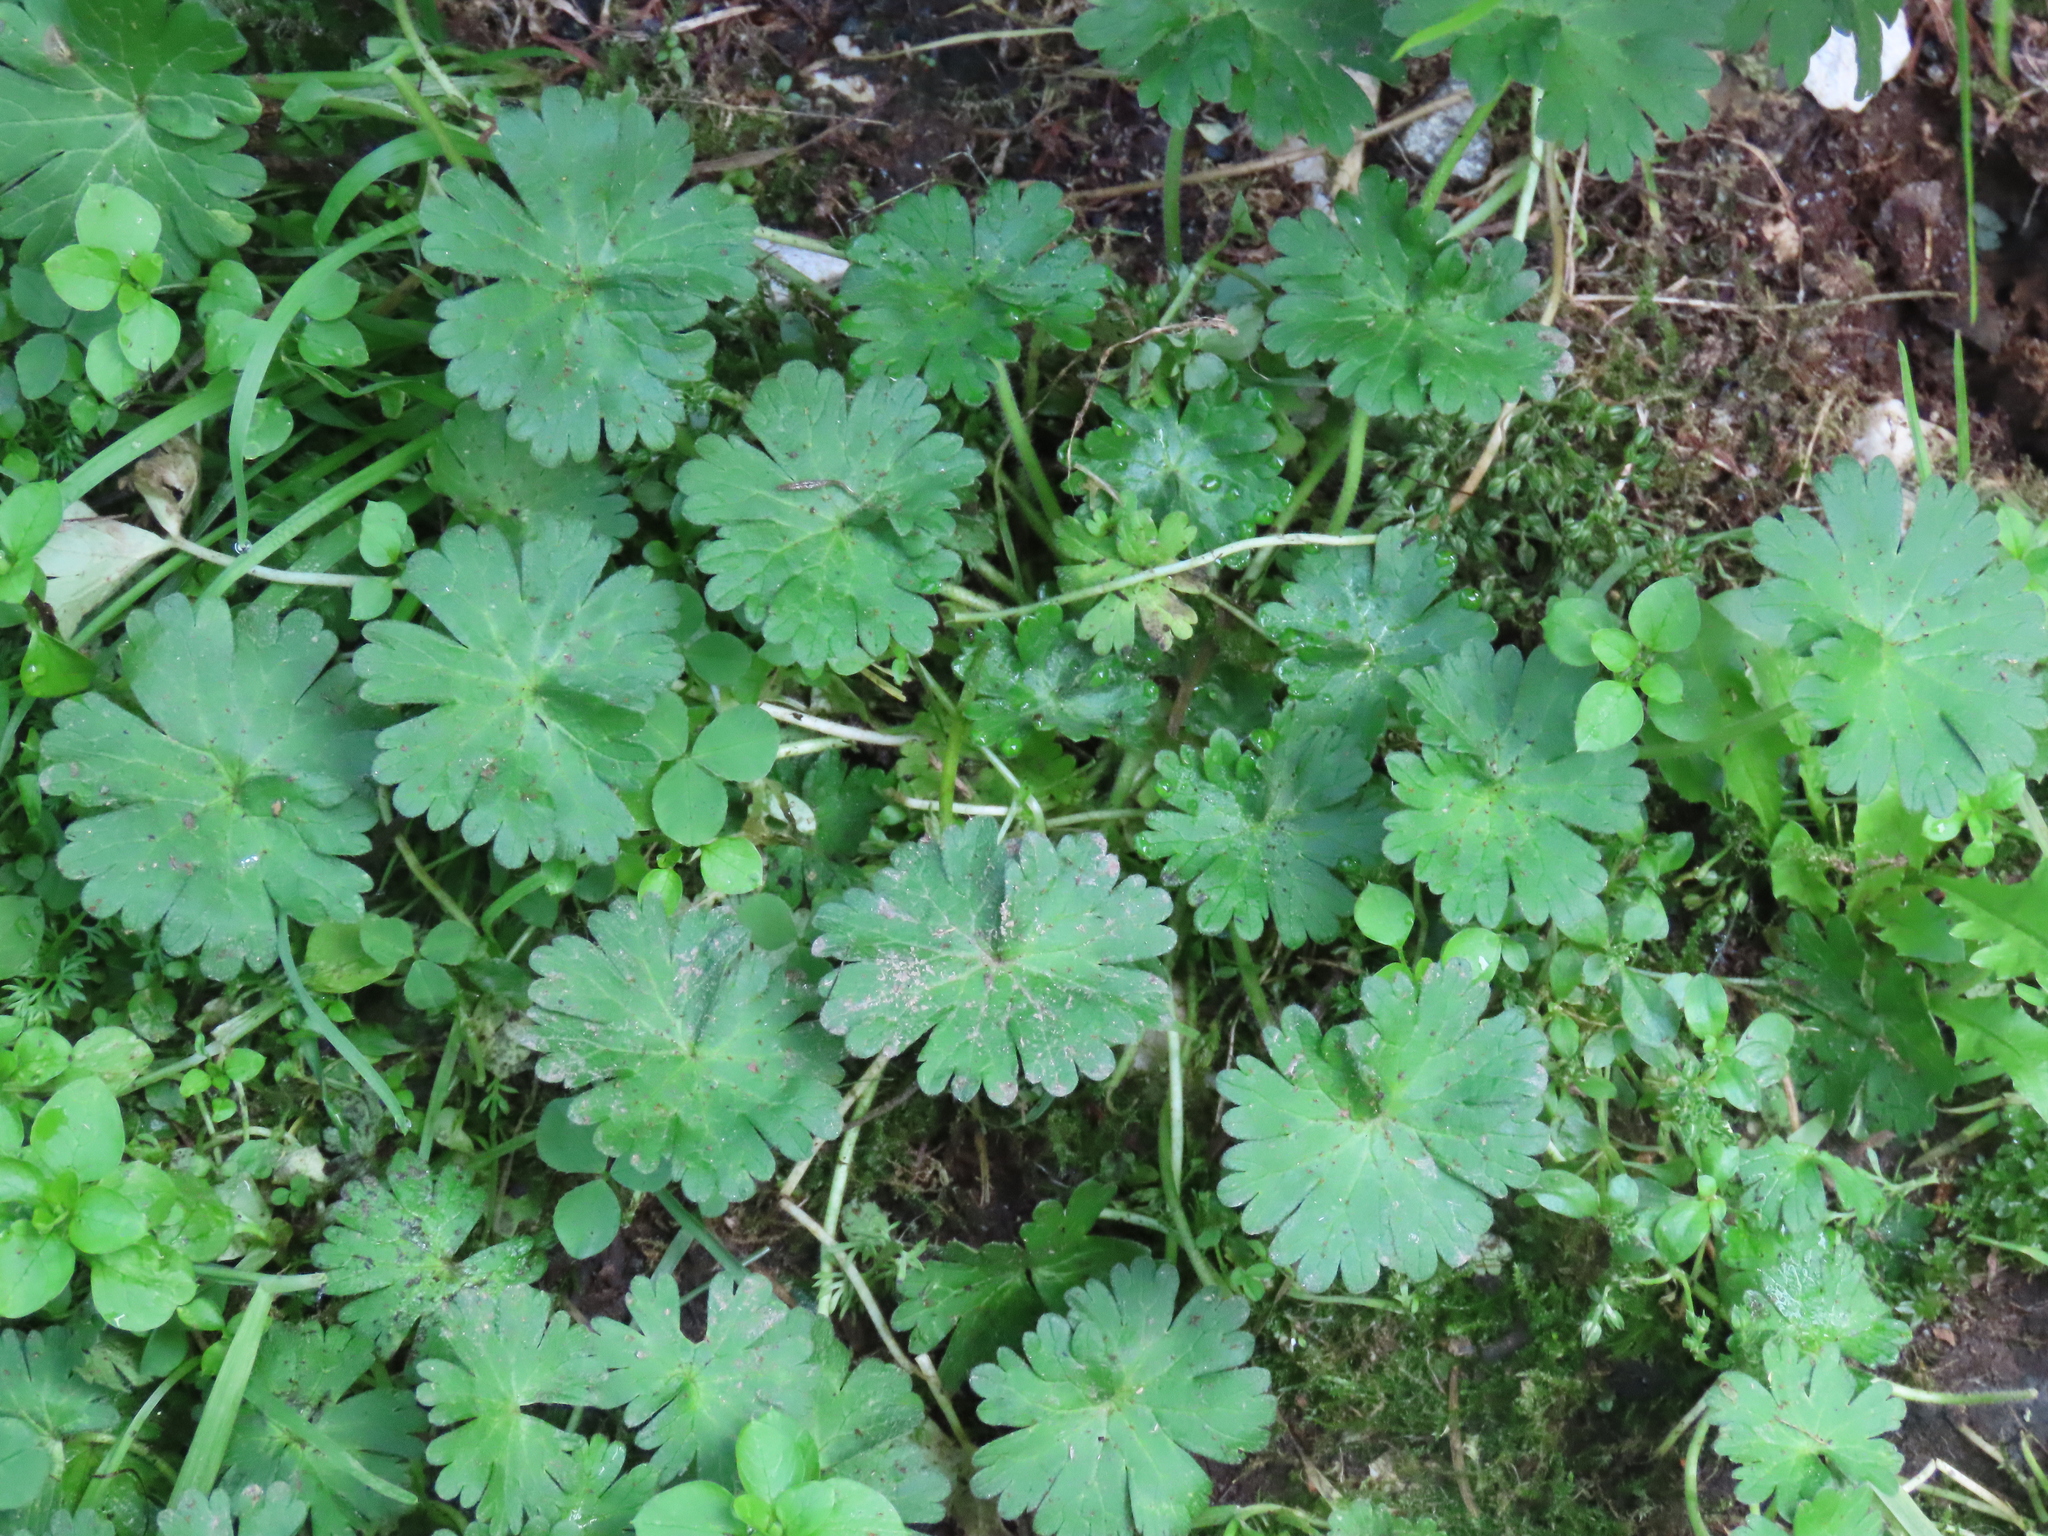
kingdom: Plantae
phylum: Tracheophyta
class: Magnoliopsida
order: Geraniales
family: Geraniaceae
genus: Geranium
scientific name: Geranium molle
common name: Dove's-foot crane's-bill
